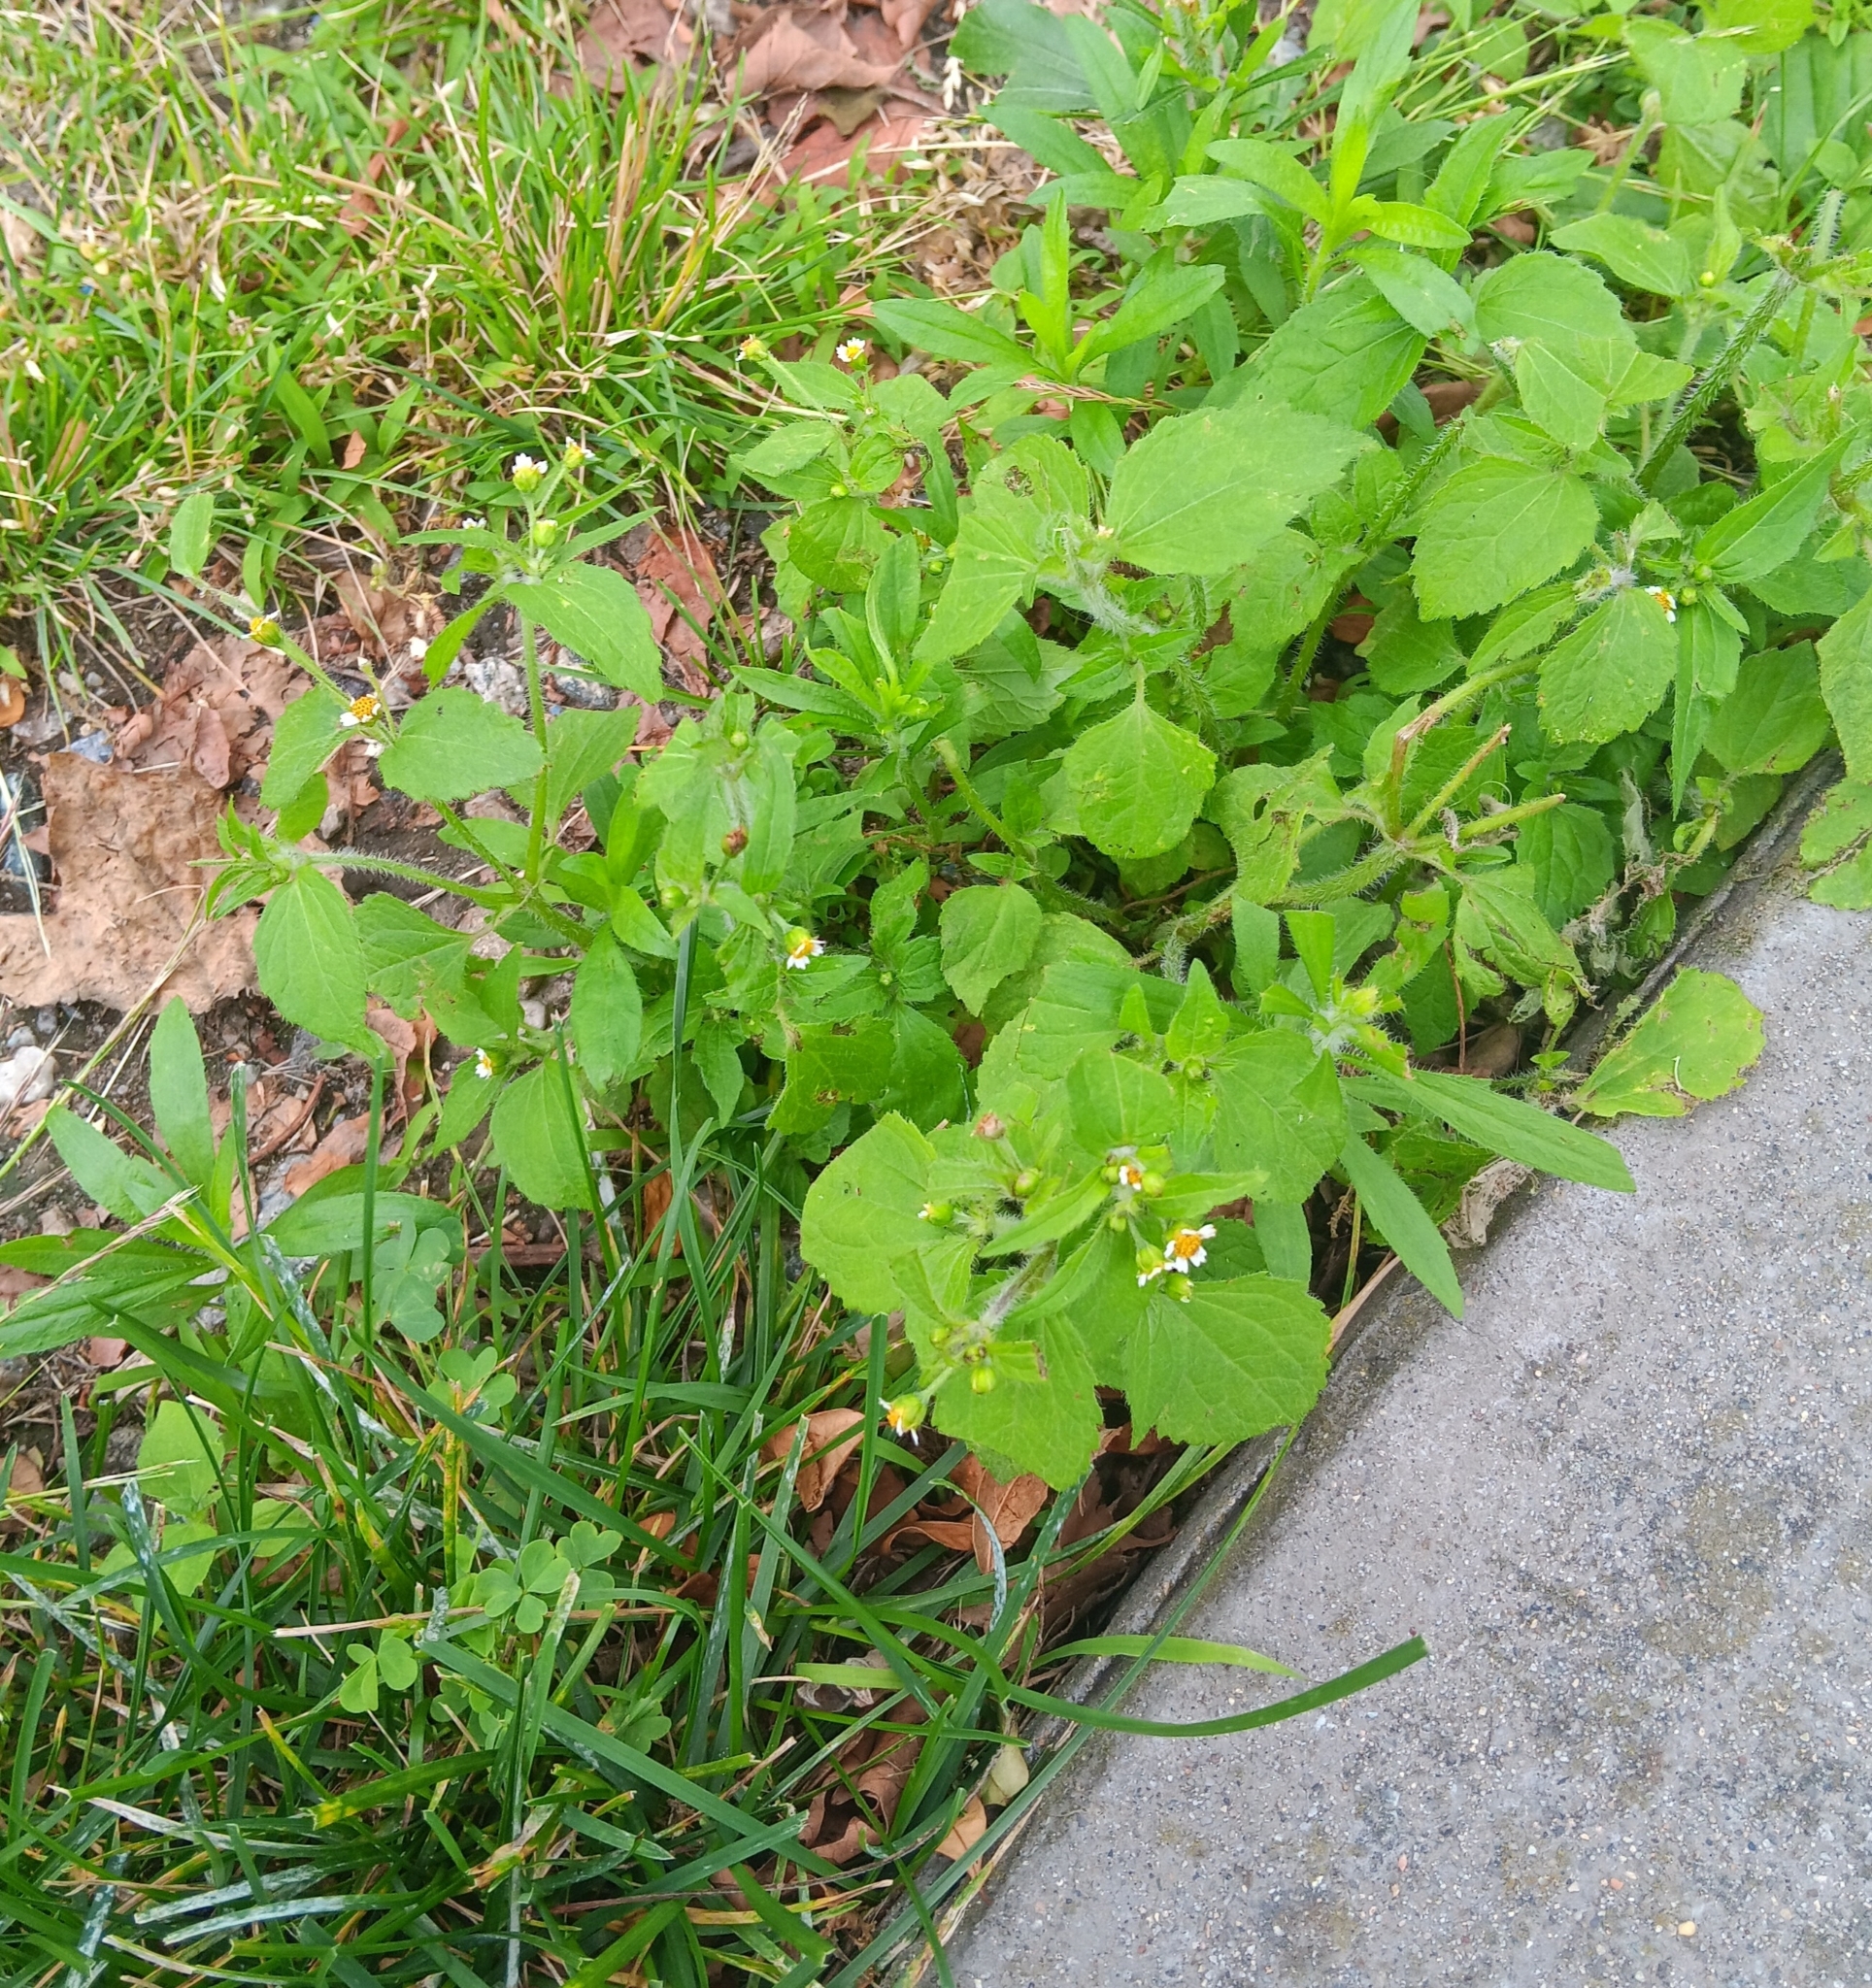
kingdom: Plantae
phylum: Tracheophyta
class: Magnoliopsida
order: Asterales
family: Asteraceae
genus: Galinsoga
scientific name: Galinsoga quadriradiata
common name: Shaggy soldier
